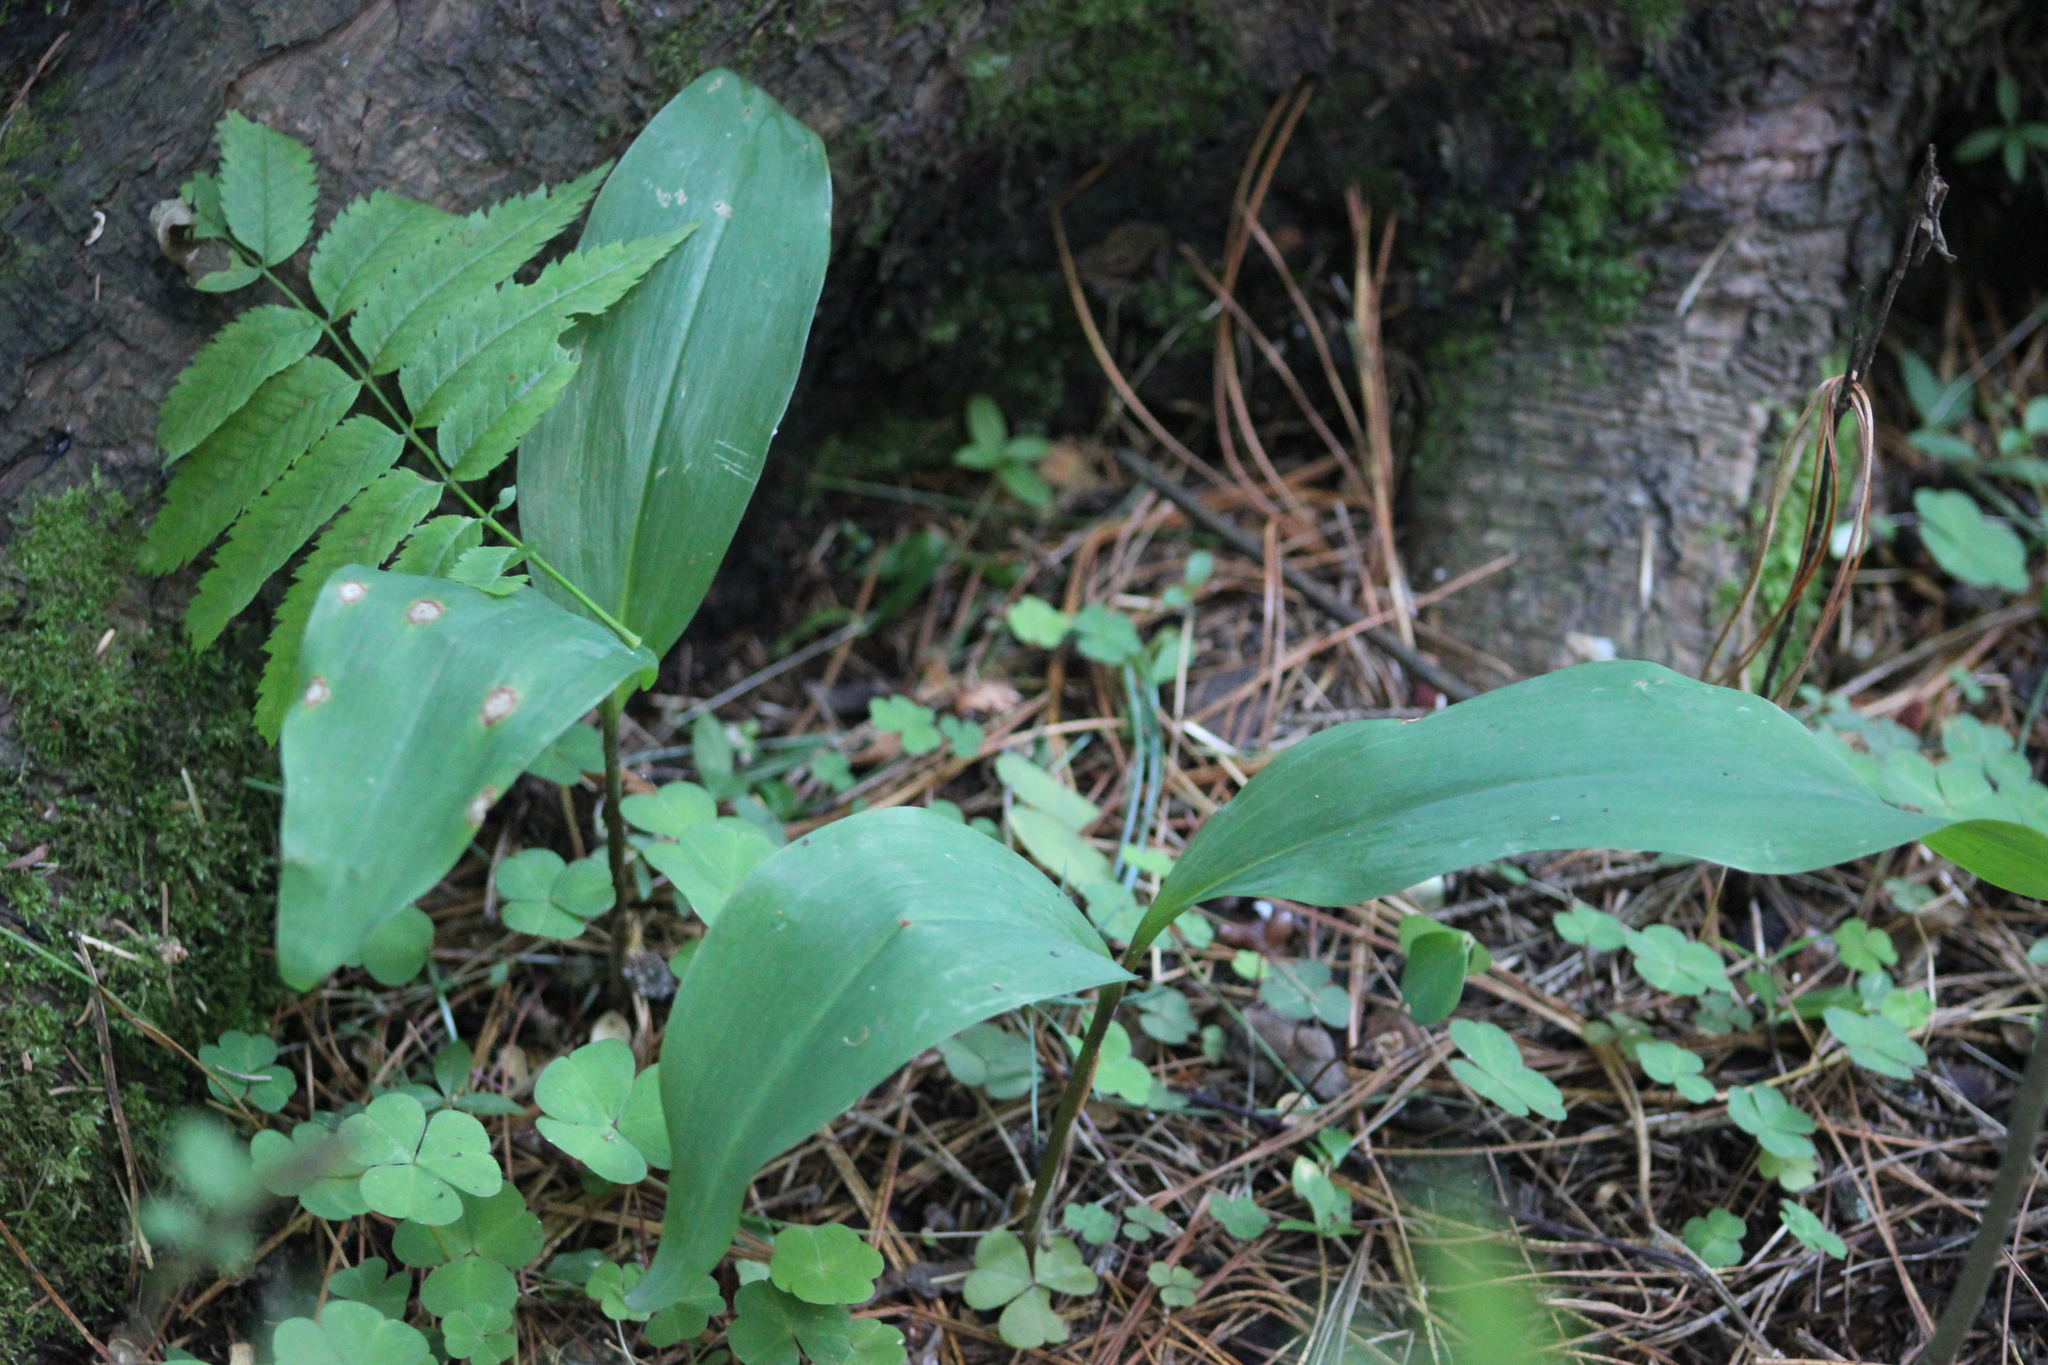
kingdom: Plantae
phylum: Tracheophyta
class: Liliopsida
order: Asparagales
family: Asparagaceae
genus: Convallaria
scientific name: Convallaria majalis
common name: Lily-of-the-valley
